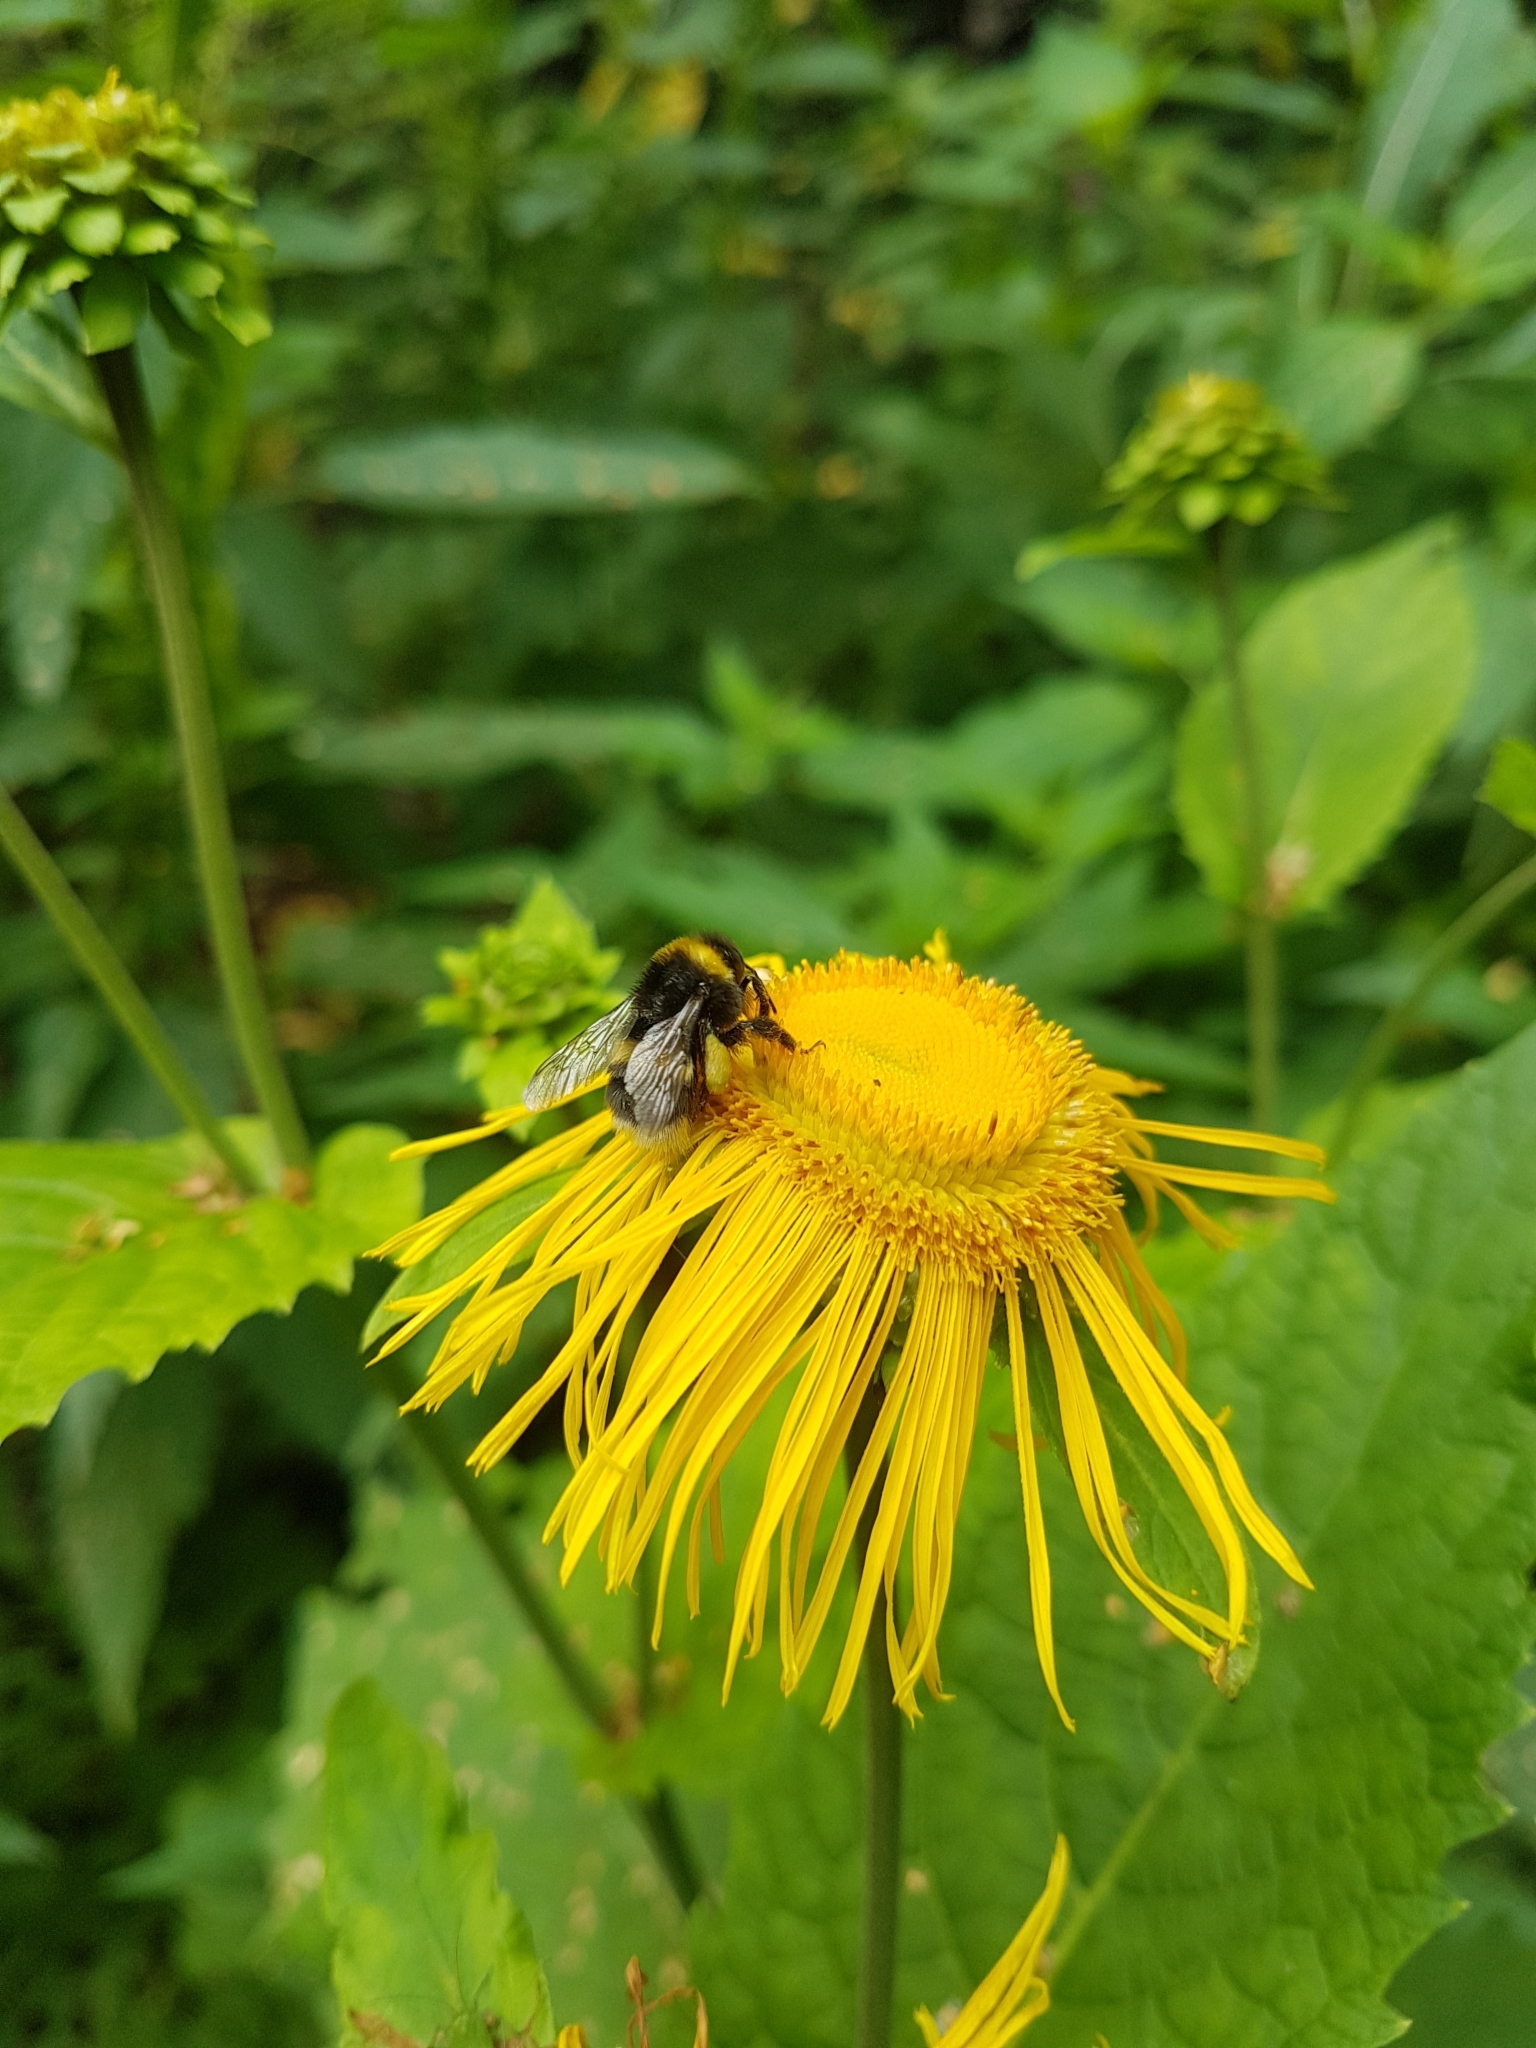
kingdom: Plantae
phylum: Tracheophyta
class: Magnoliopsida
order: Asterales
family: Asteraceae
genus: Telekia
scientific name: Telekia speciosa
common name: Yellow oxeye
